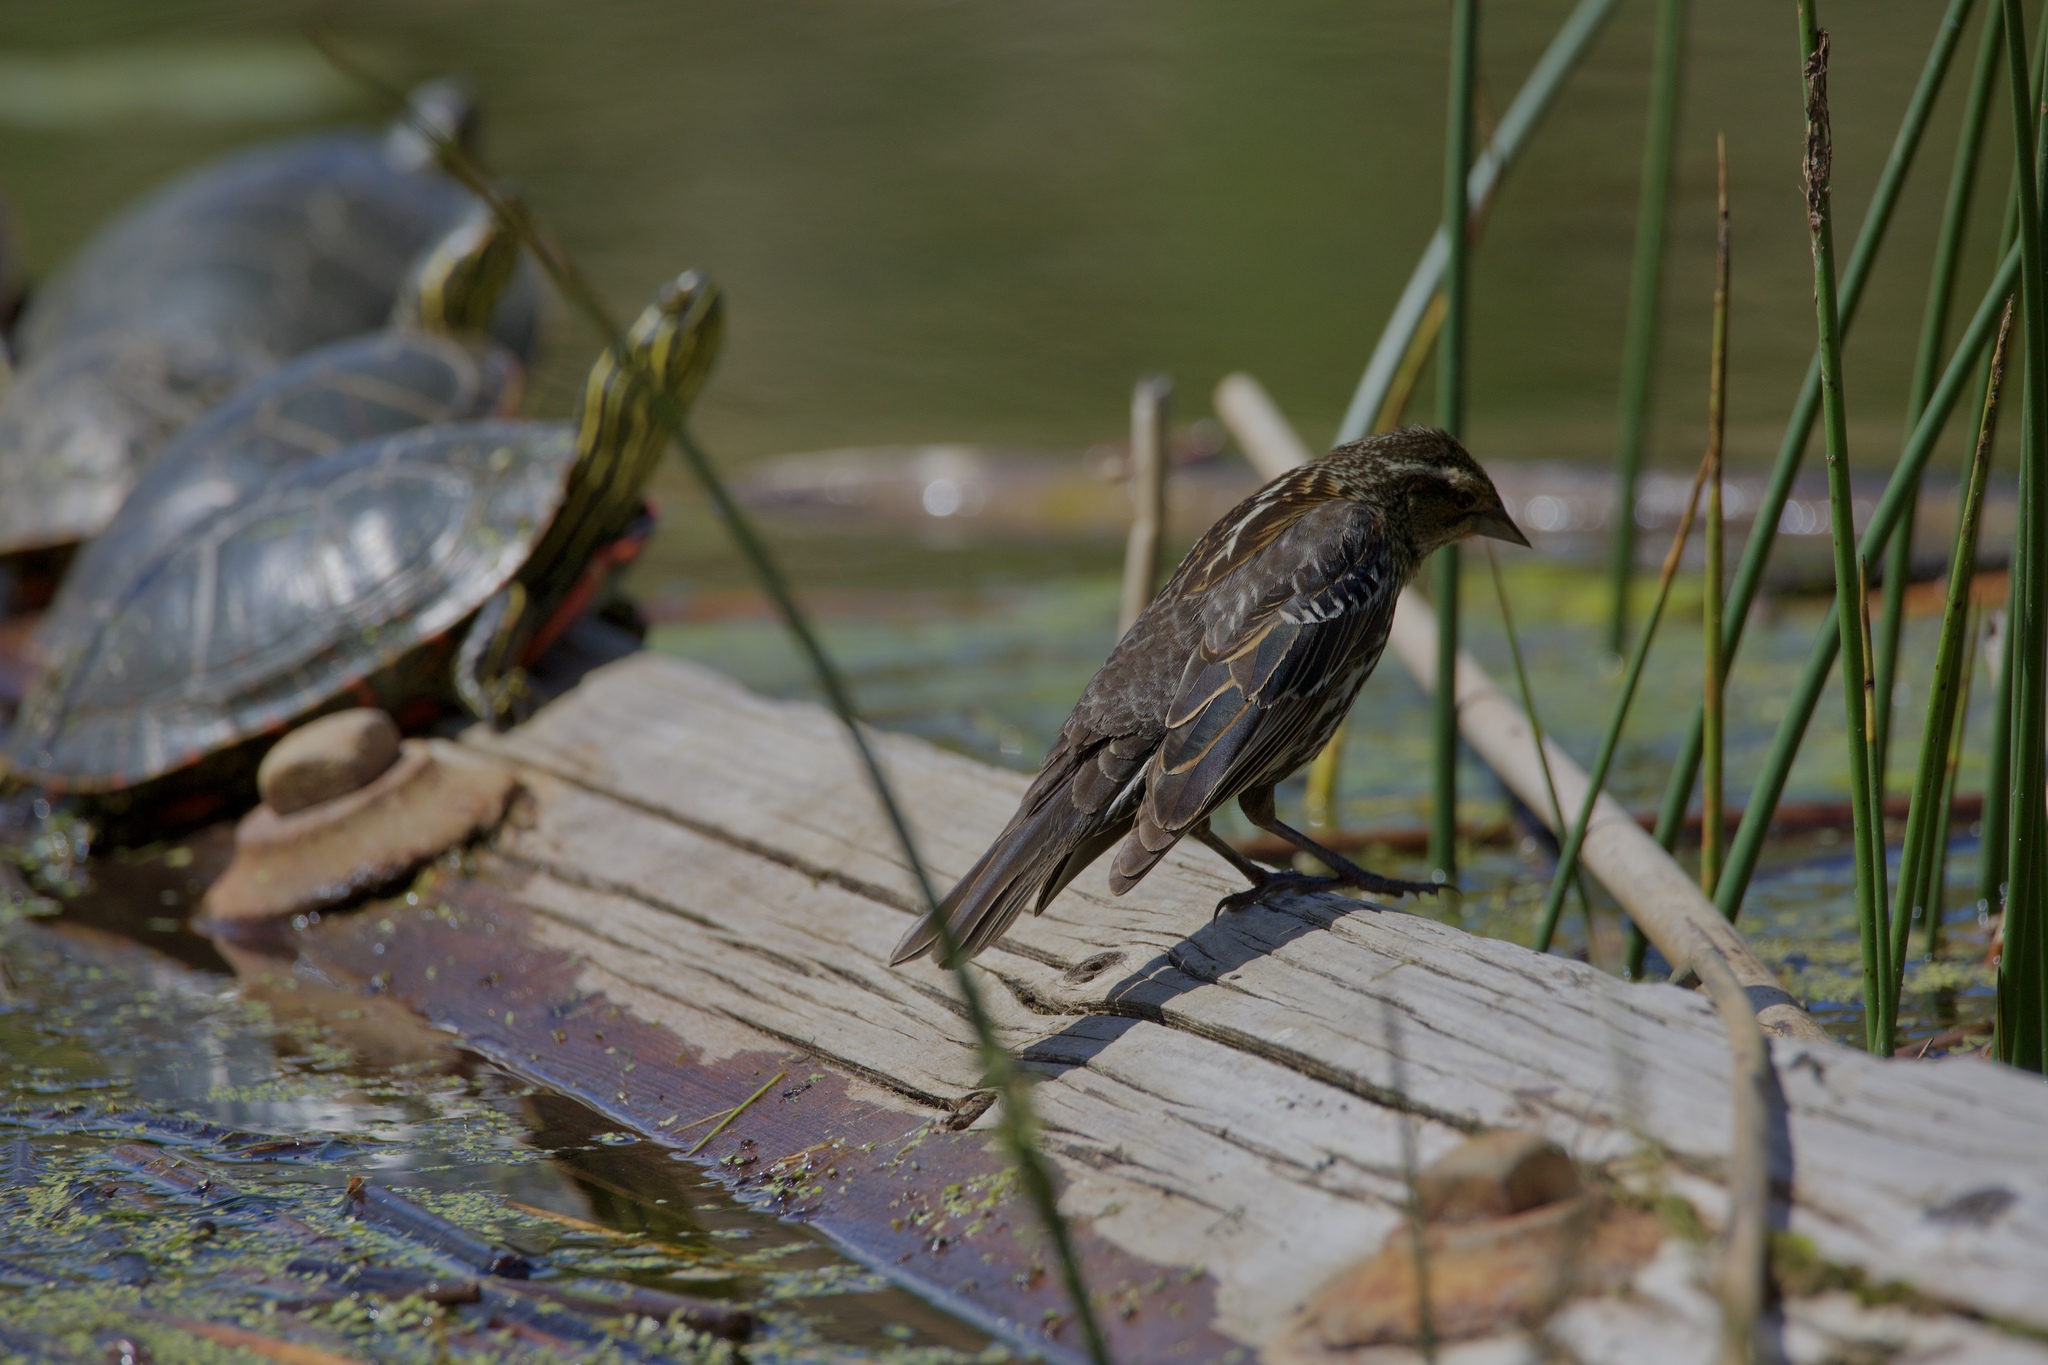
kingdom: Animalia
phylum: Chordata
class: Aves
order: Passeriformes
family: Icteridae
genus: Agelaius
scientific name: Agelaius phoeniceus
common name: Red-winged blackbird
